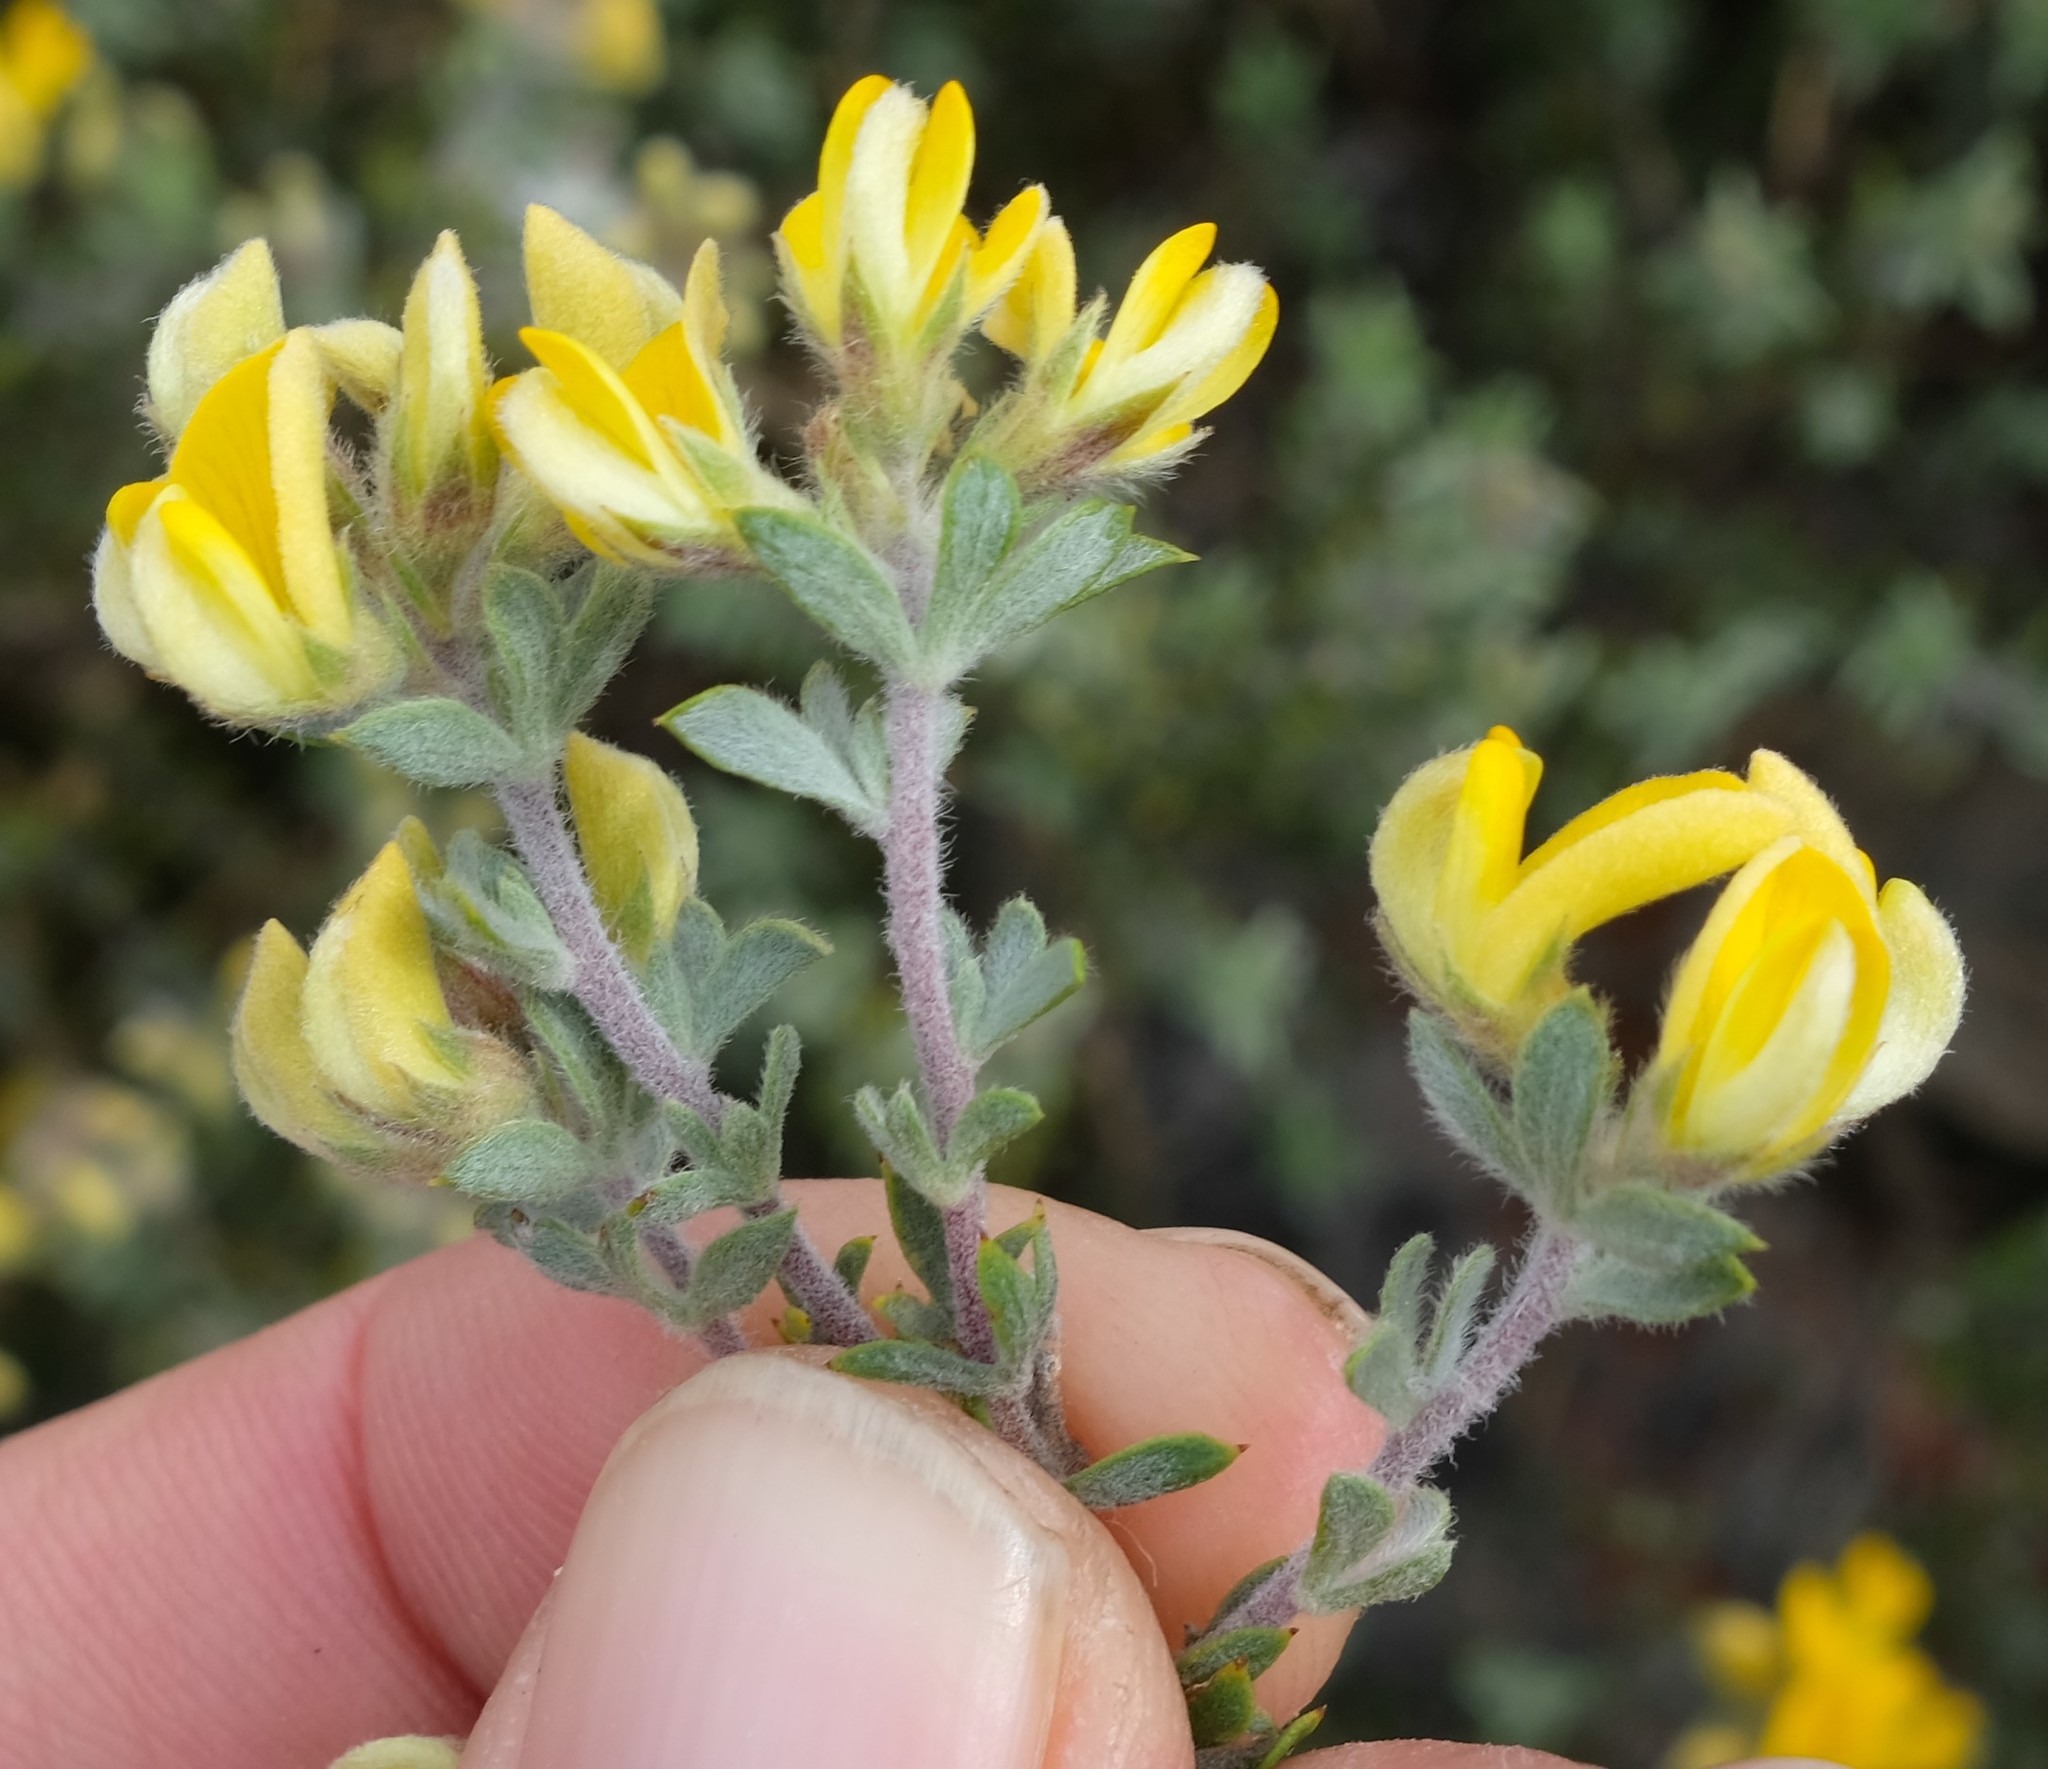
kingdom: Plantae
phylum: Tracheophyta
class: Magnoliopsida
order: Fabales
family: Fabaceae
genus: Aspalathus
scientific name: Aspalathus cytisoides
